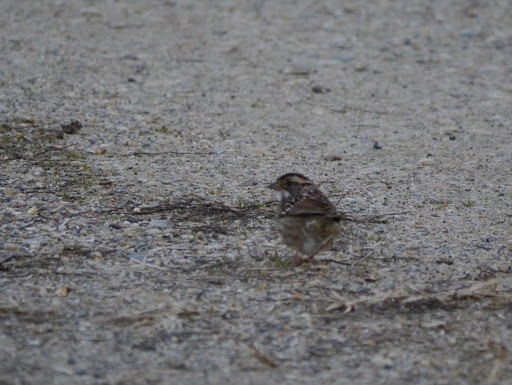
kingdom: Animalia
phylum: Chordata
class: Aves
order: Passeriformes
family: Passerellidae
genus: Zonotrichia
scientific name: Zonotrichia albicollis
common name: White-throated sparrow
